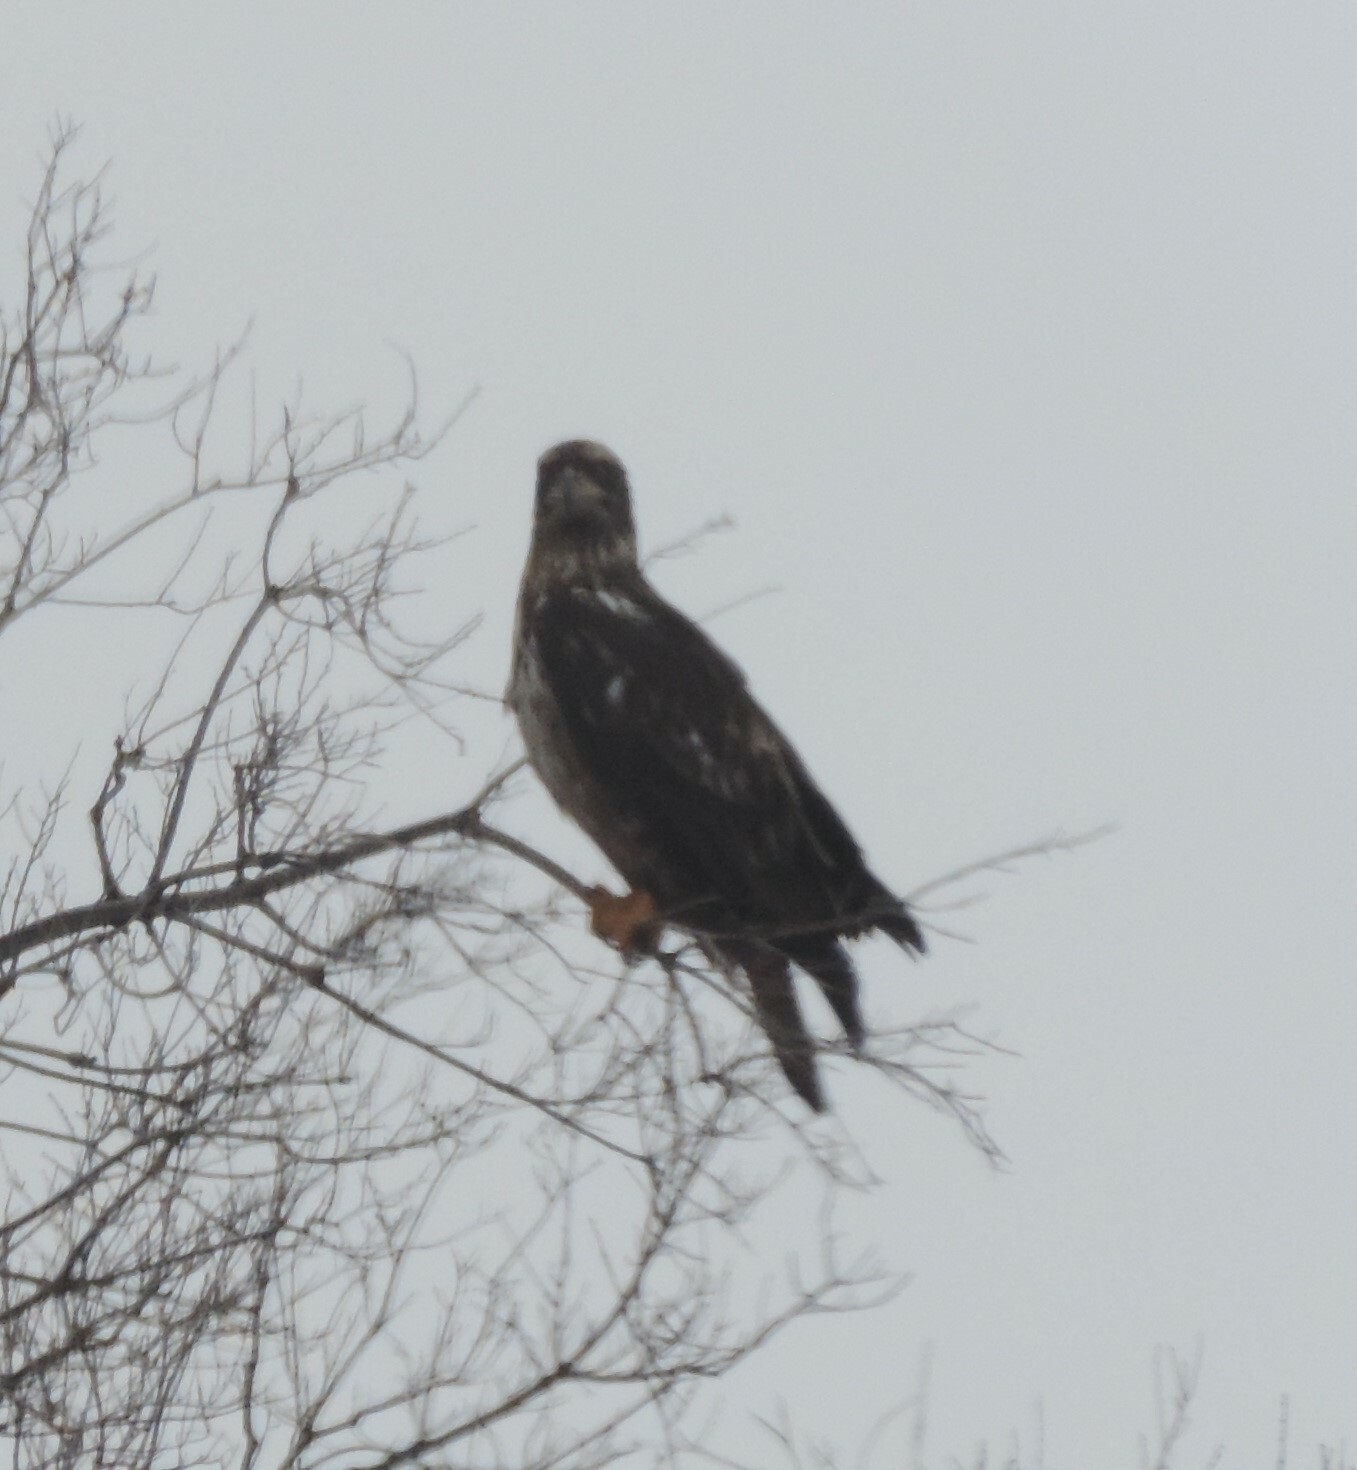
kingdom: Animalia
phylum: Chordata
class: Aves
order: Accipitriformes
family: Accipitridae
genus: Haliaeetus
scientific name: Haliaeetus leucocephalus
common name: Bald eagle
